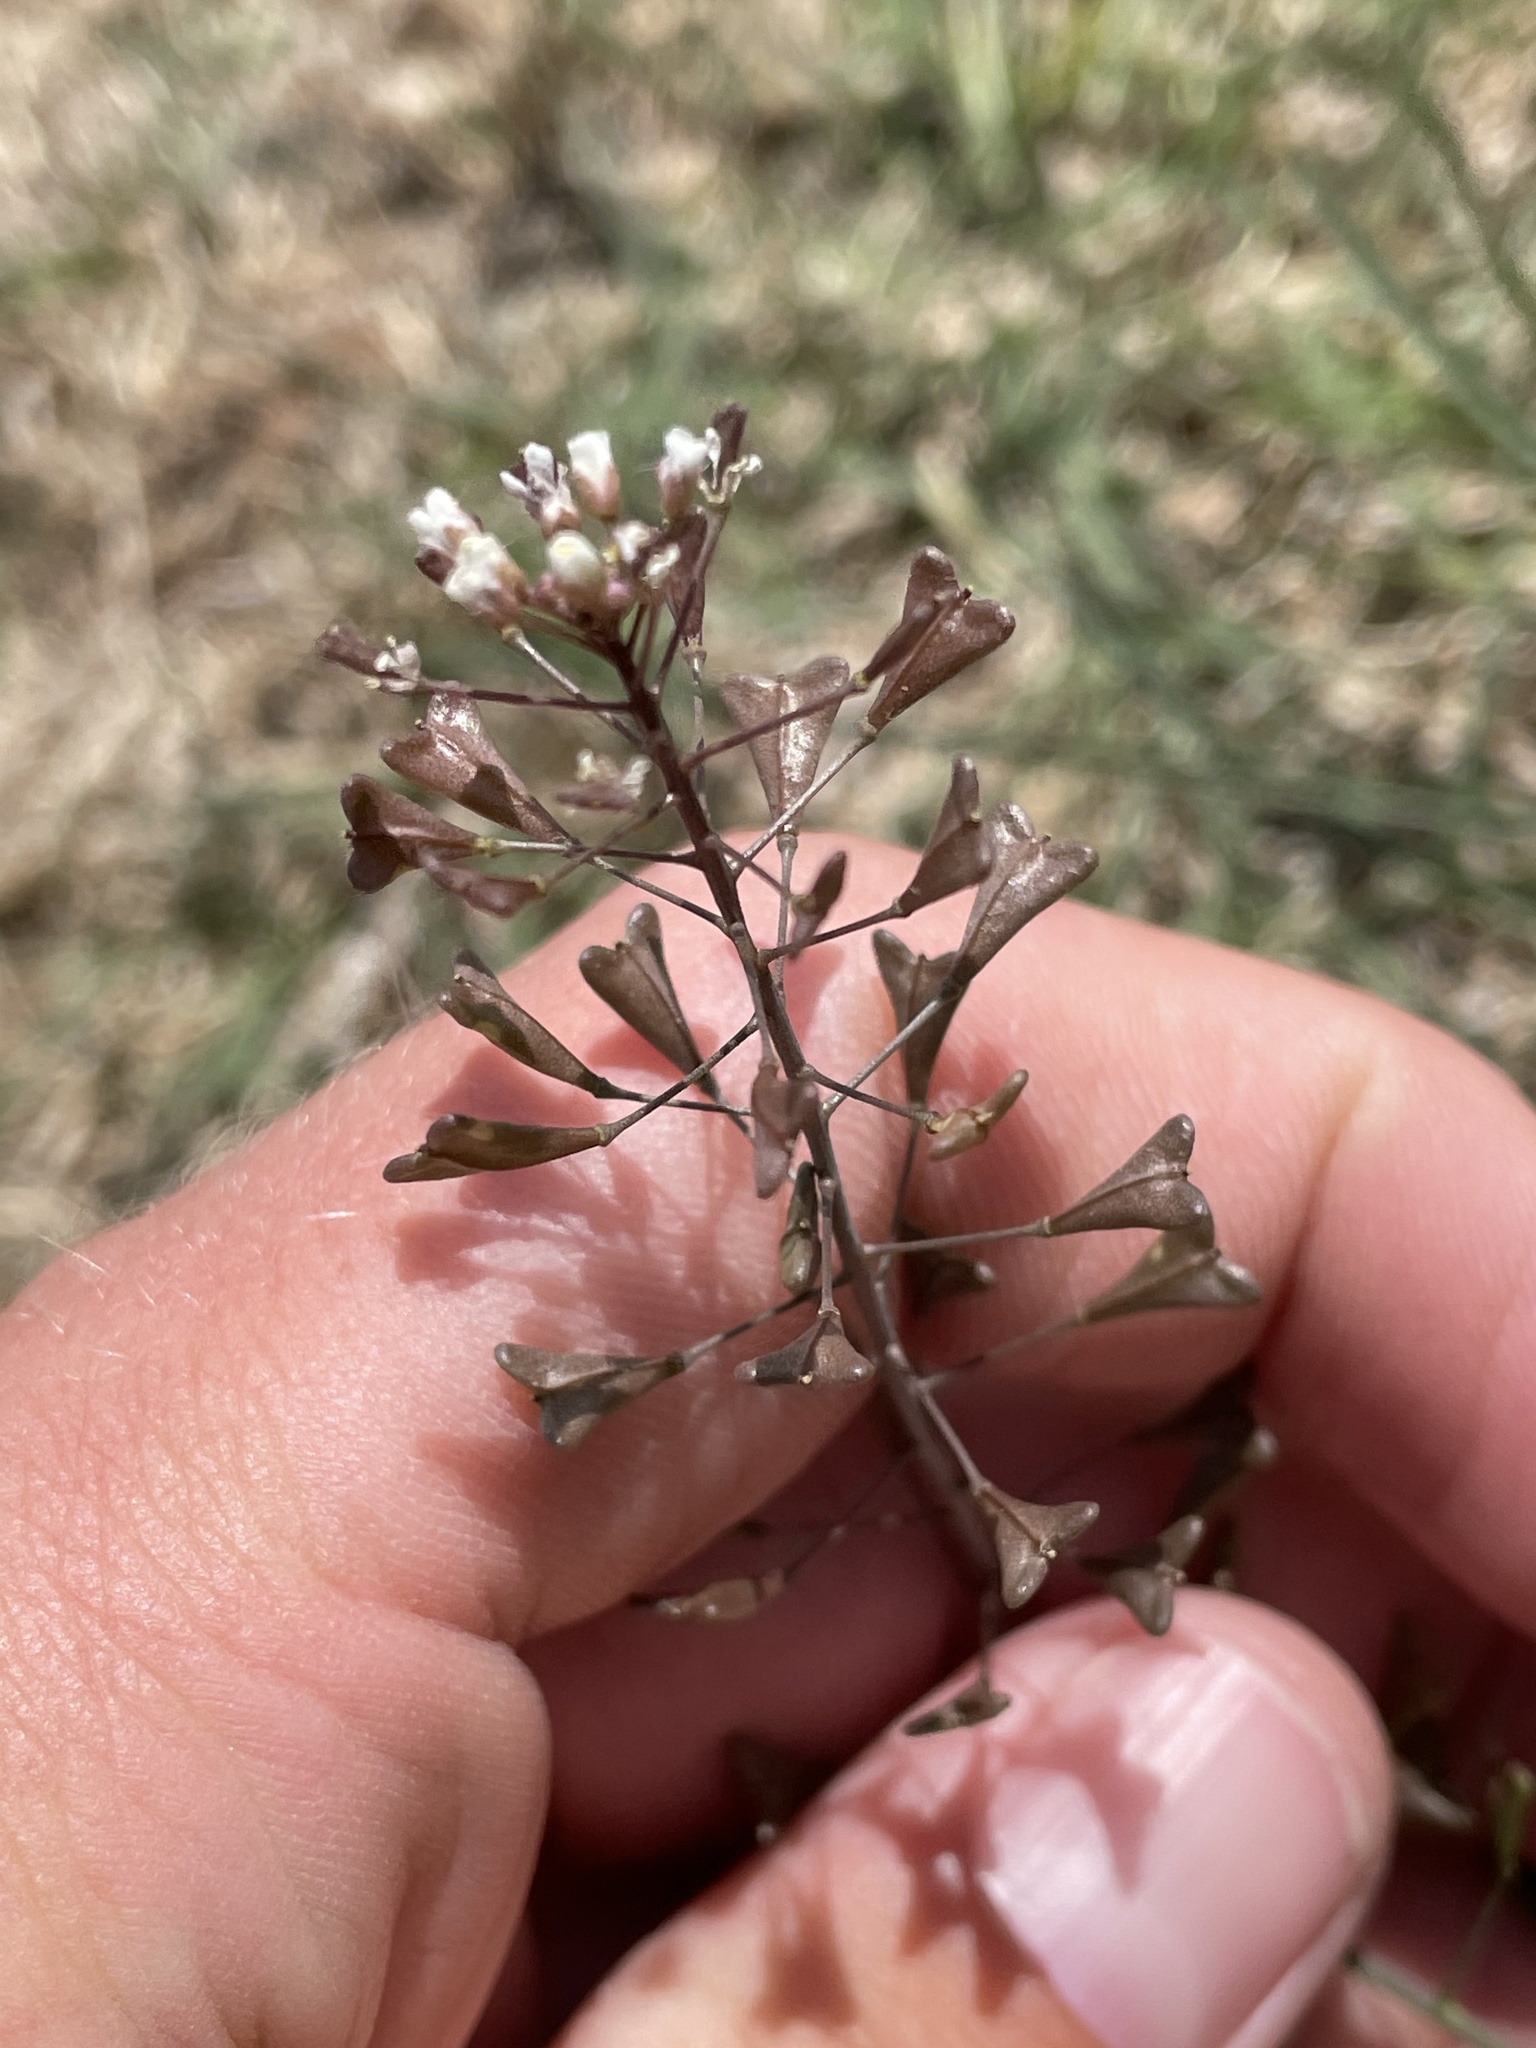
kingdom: Plantae
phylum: Tracheophyta
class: Magnoliopsida
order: Brassicales
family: Brassicaceae
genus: Capsella
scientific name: Capsella bursa-pastoris
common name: Shepherd's purse
